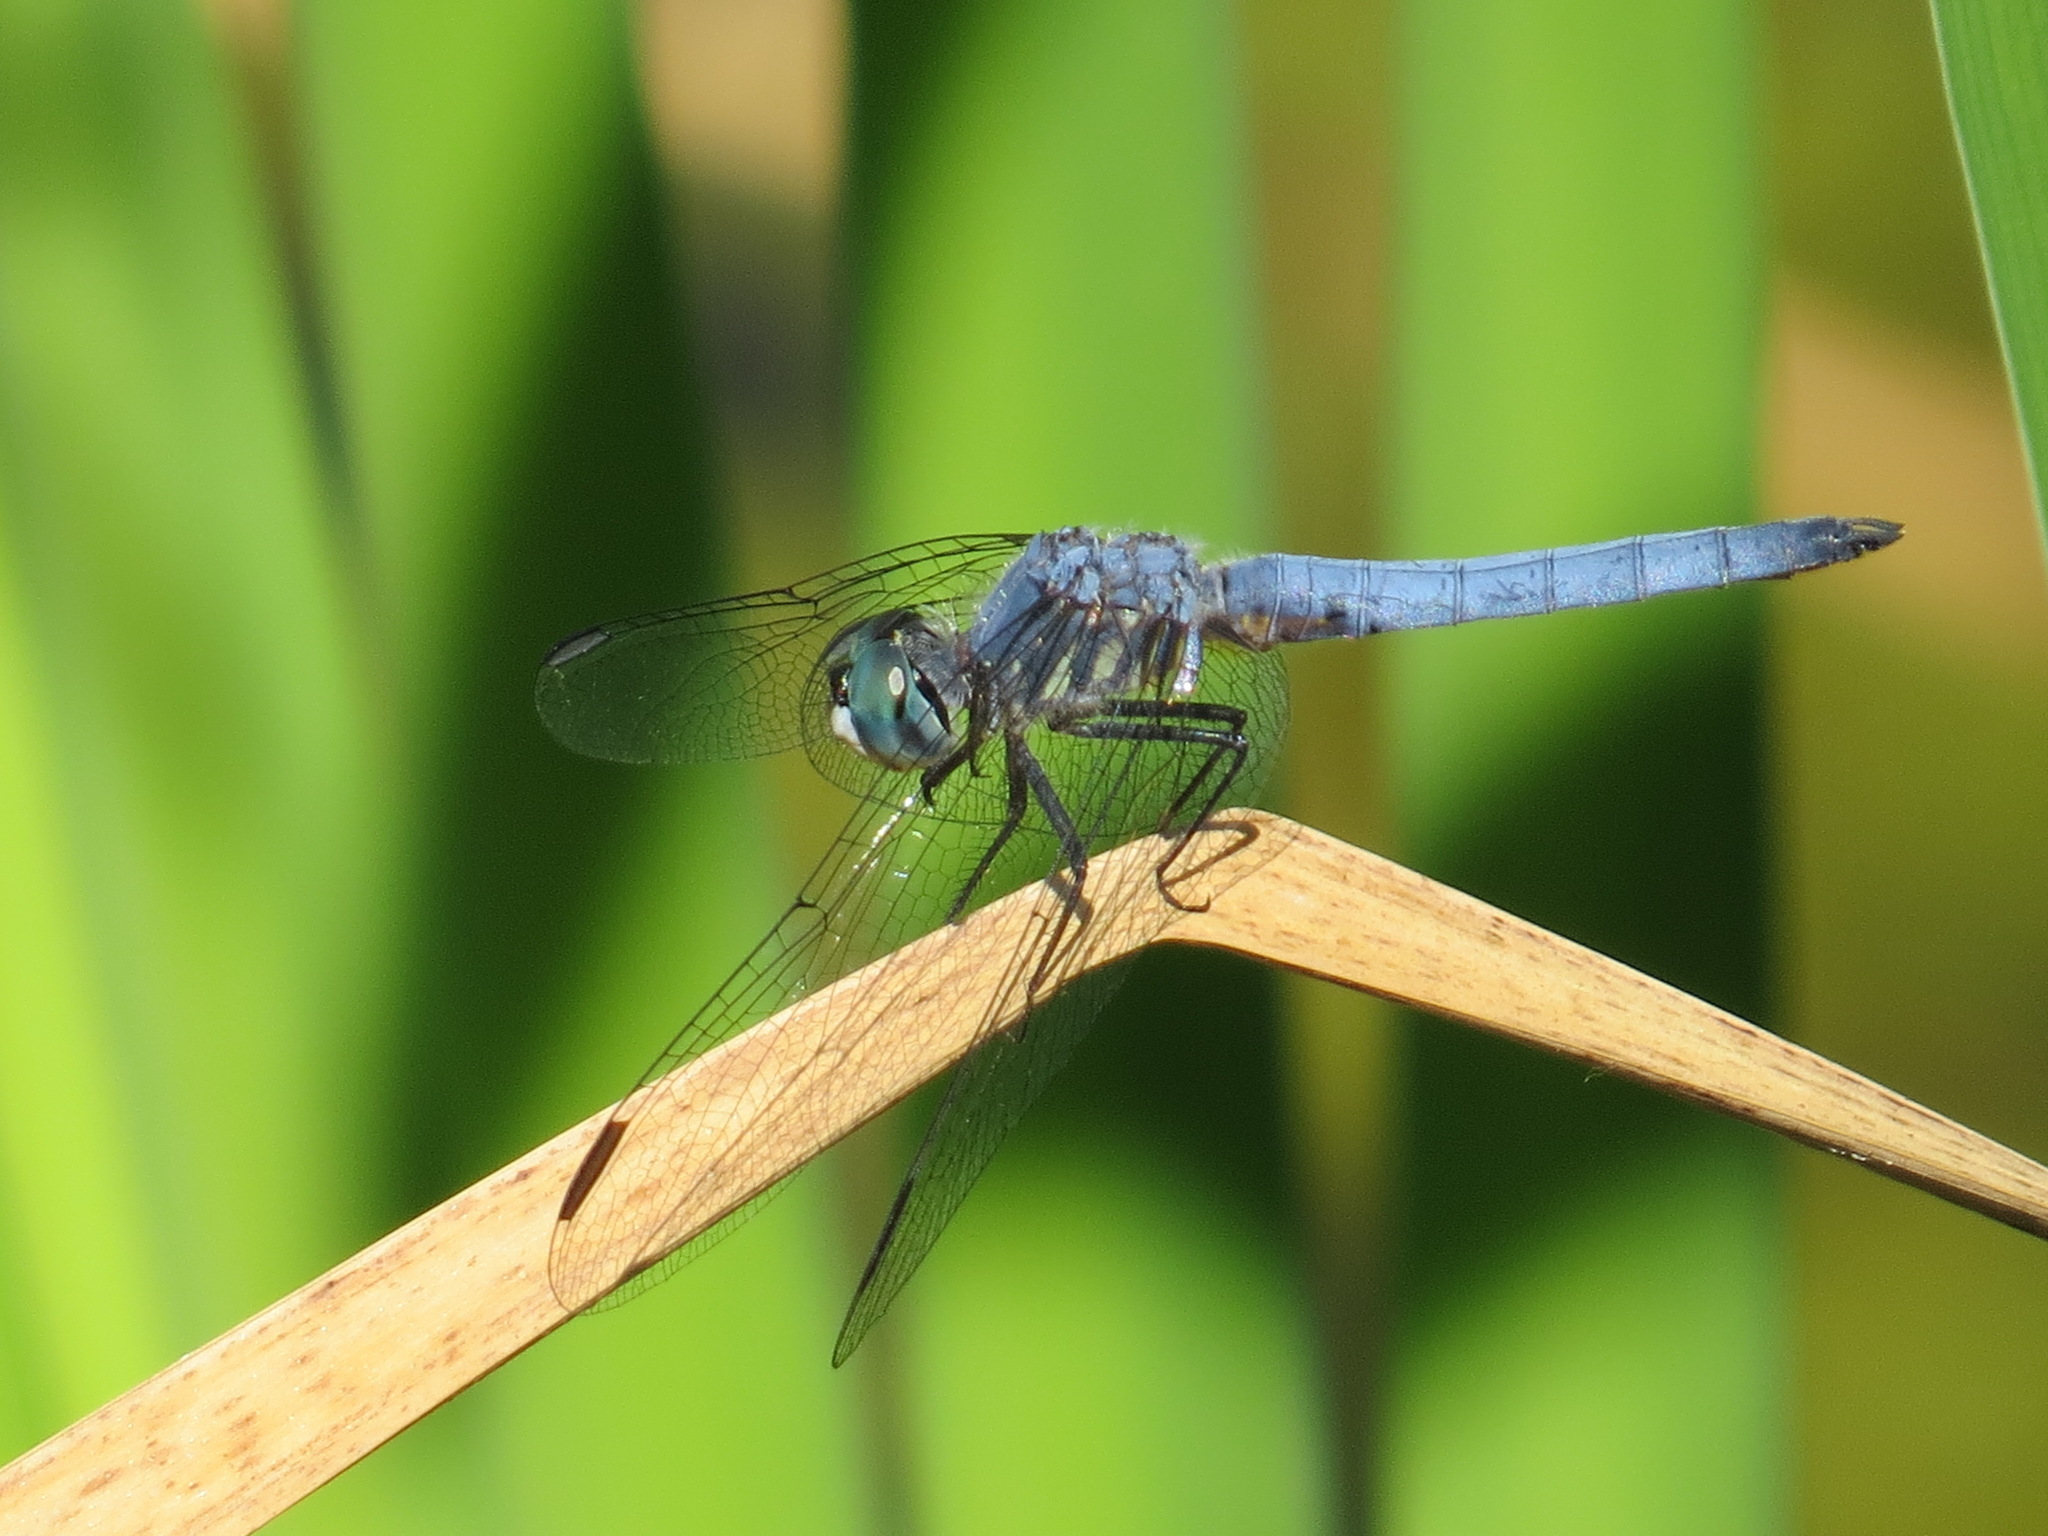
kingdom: Animalia
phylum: Arthropoda
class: Insecta
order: Odonata
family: Libellulidae
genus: Pachydiplax
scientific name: Pachydiplax longipennis
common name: Blue dasher
